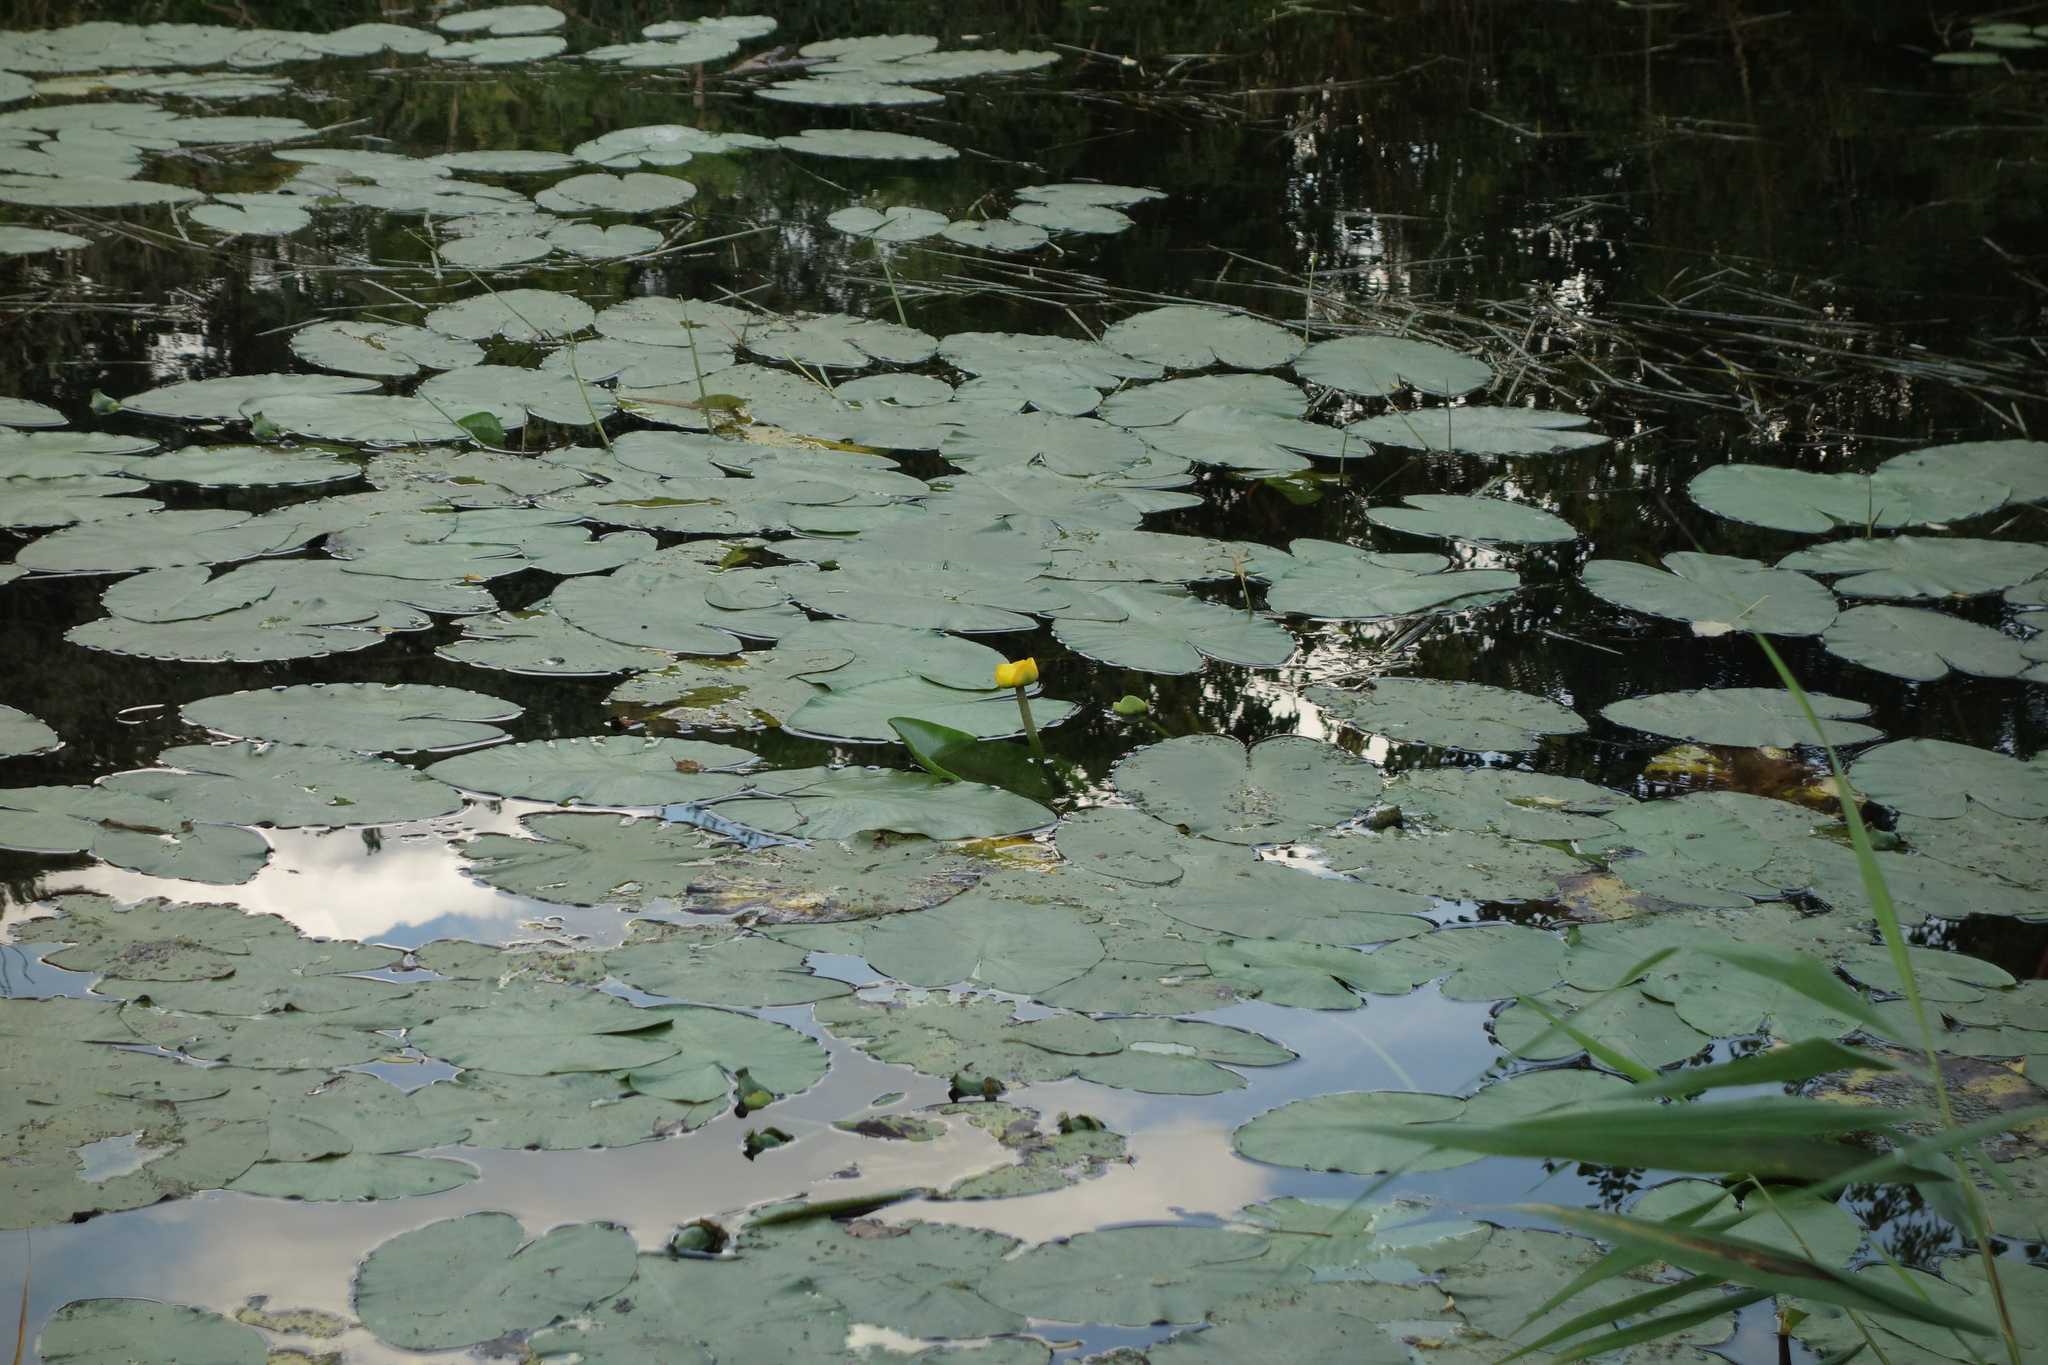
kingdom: Plantae
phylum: Tracheophyta
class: Magnoliopsida
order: Nymphaeales
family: Nymphaeaceae
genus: Nuphar
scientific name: Nuphar lutea
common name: Yellow water-lily
